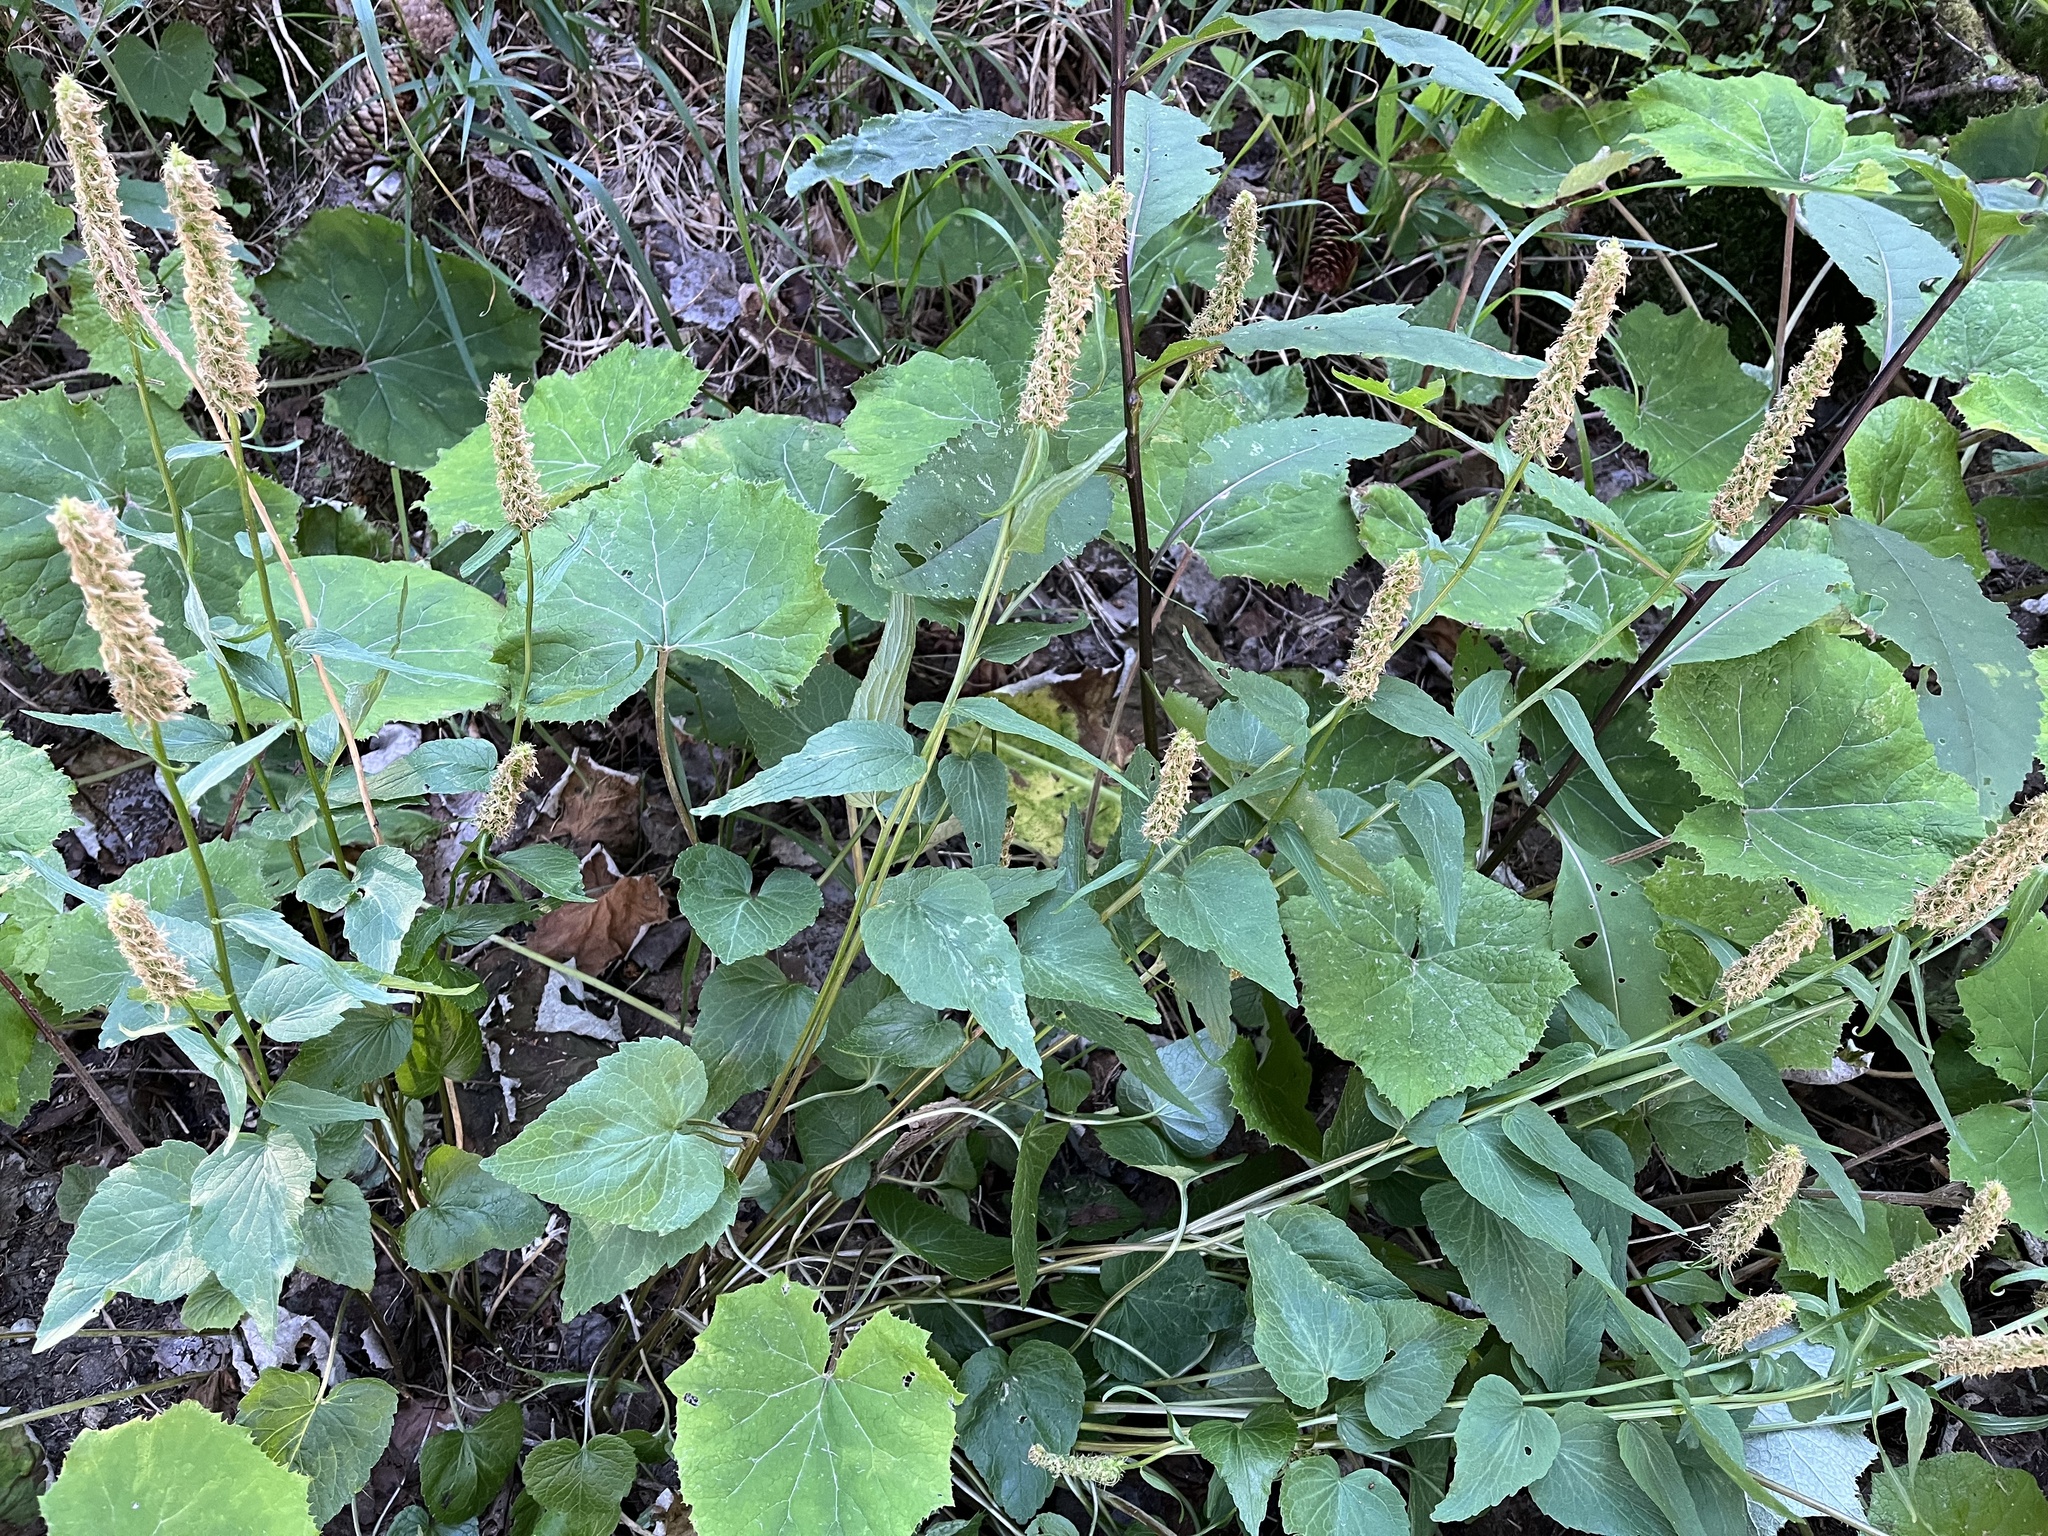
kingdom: Plantae
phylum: Tracheophyta
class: Magnoliopsida
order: Asterales
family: Campanulaceae
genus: Phyteuma
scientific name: Phyteuma spicatum
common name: Spiked rampion
